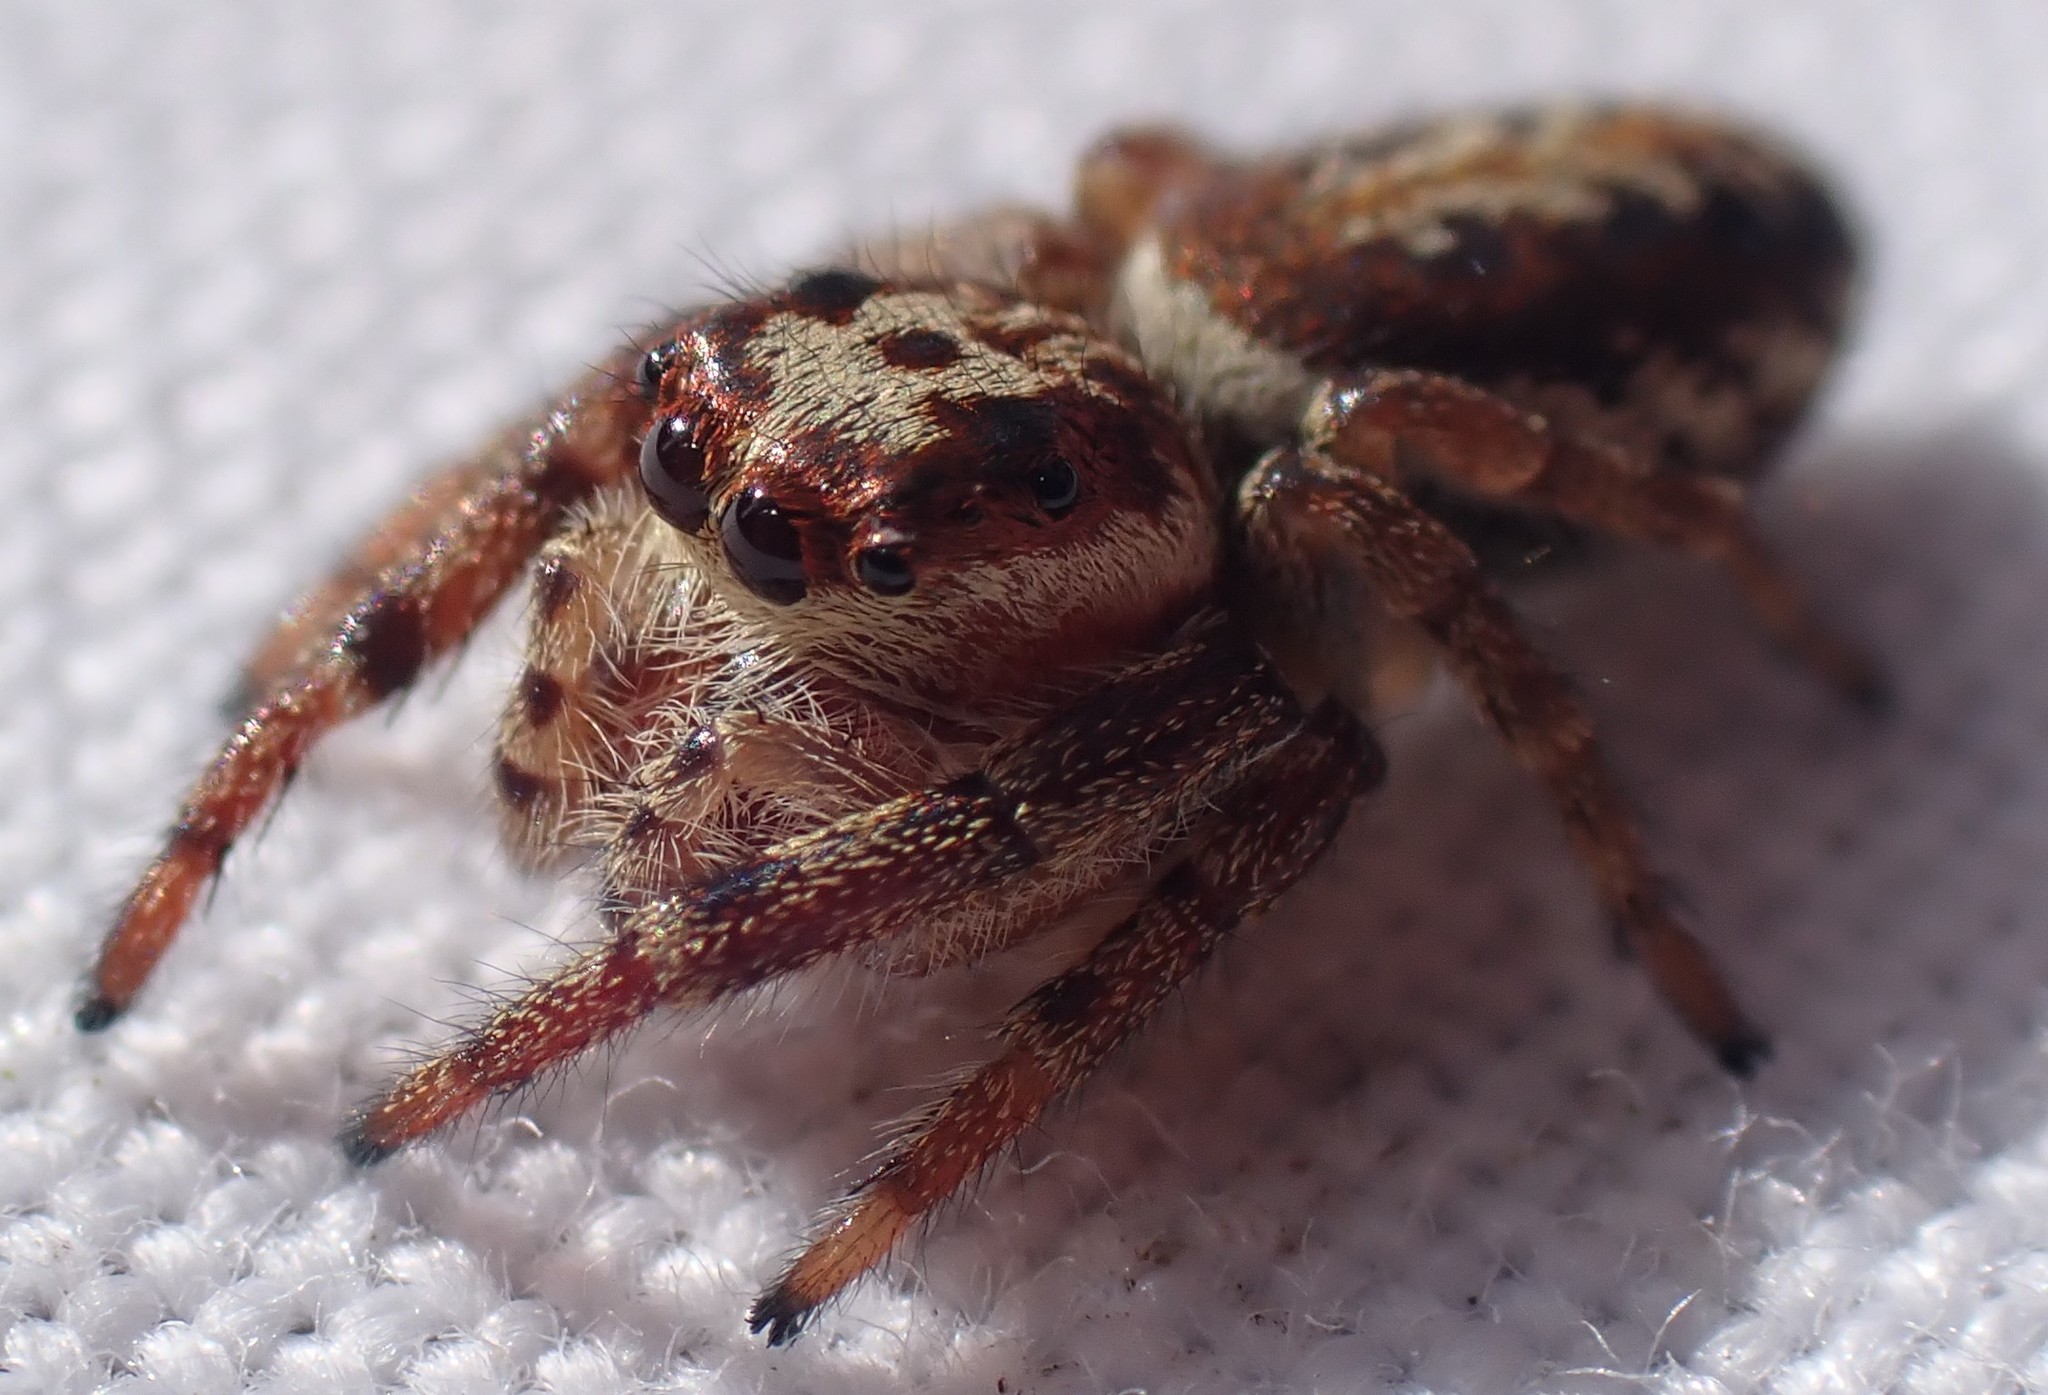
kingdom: Animalia
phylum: Arthropoda
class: Arachnida
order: Araneae
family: Salticidae
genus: Opisthoncus
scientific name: Opisthoncus serratofasciatus
